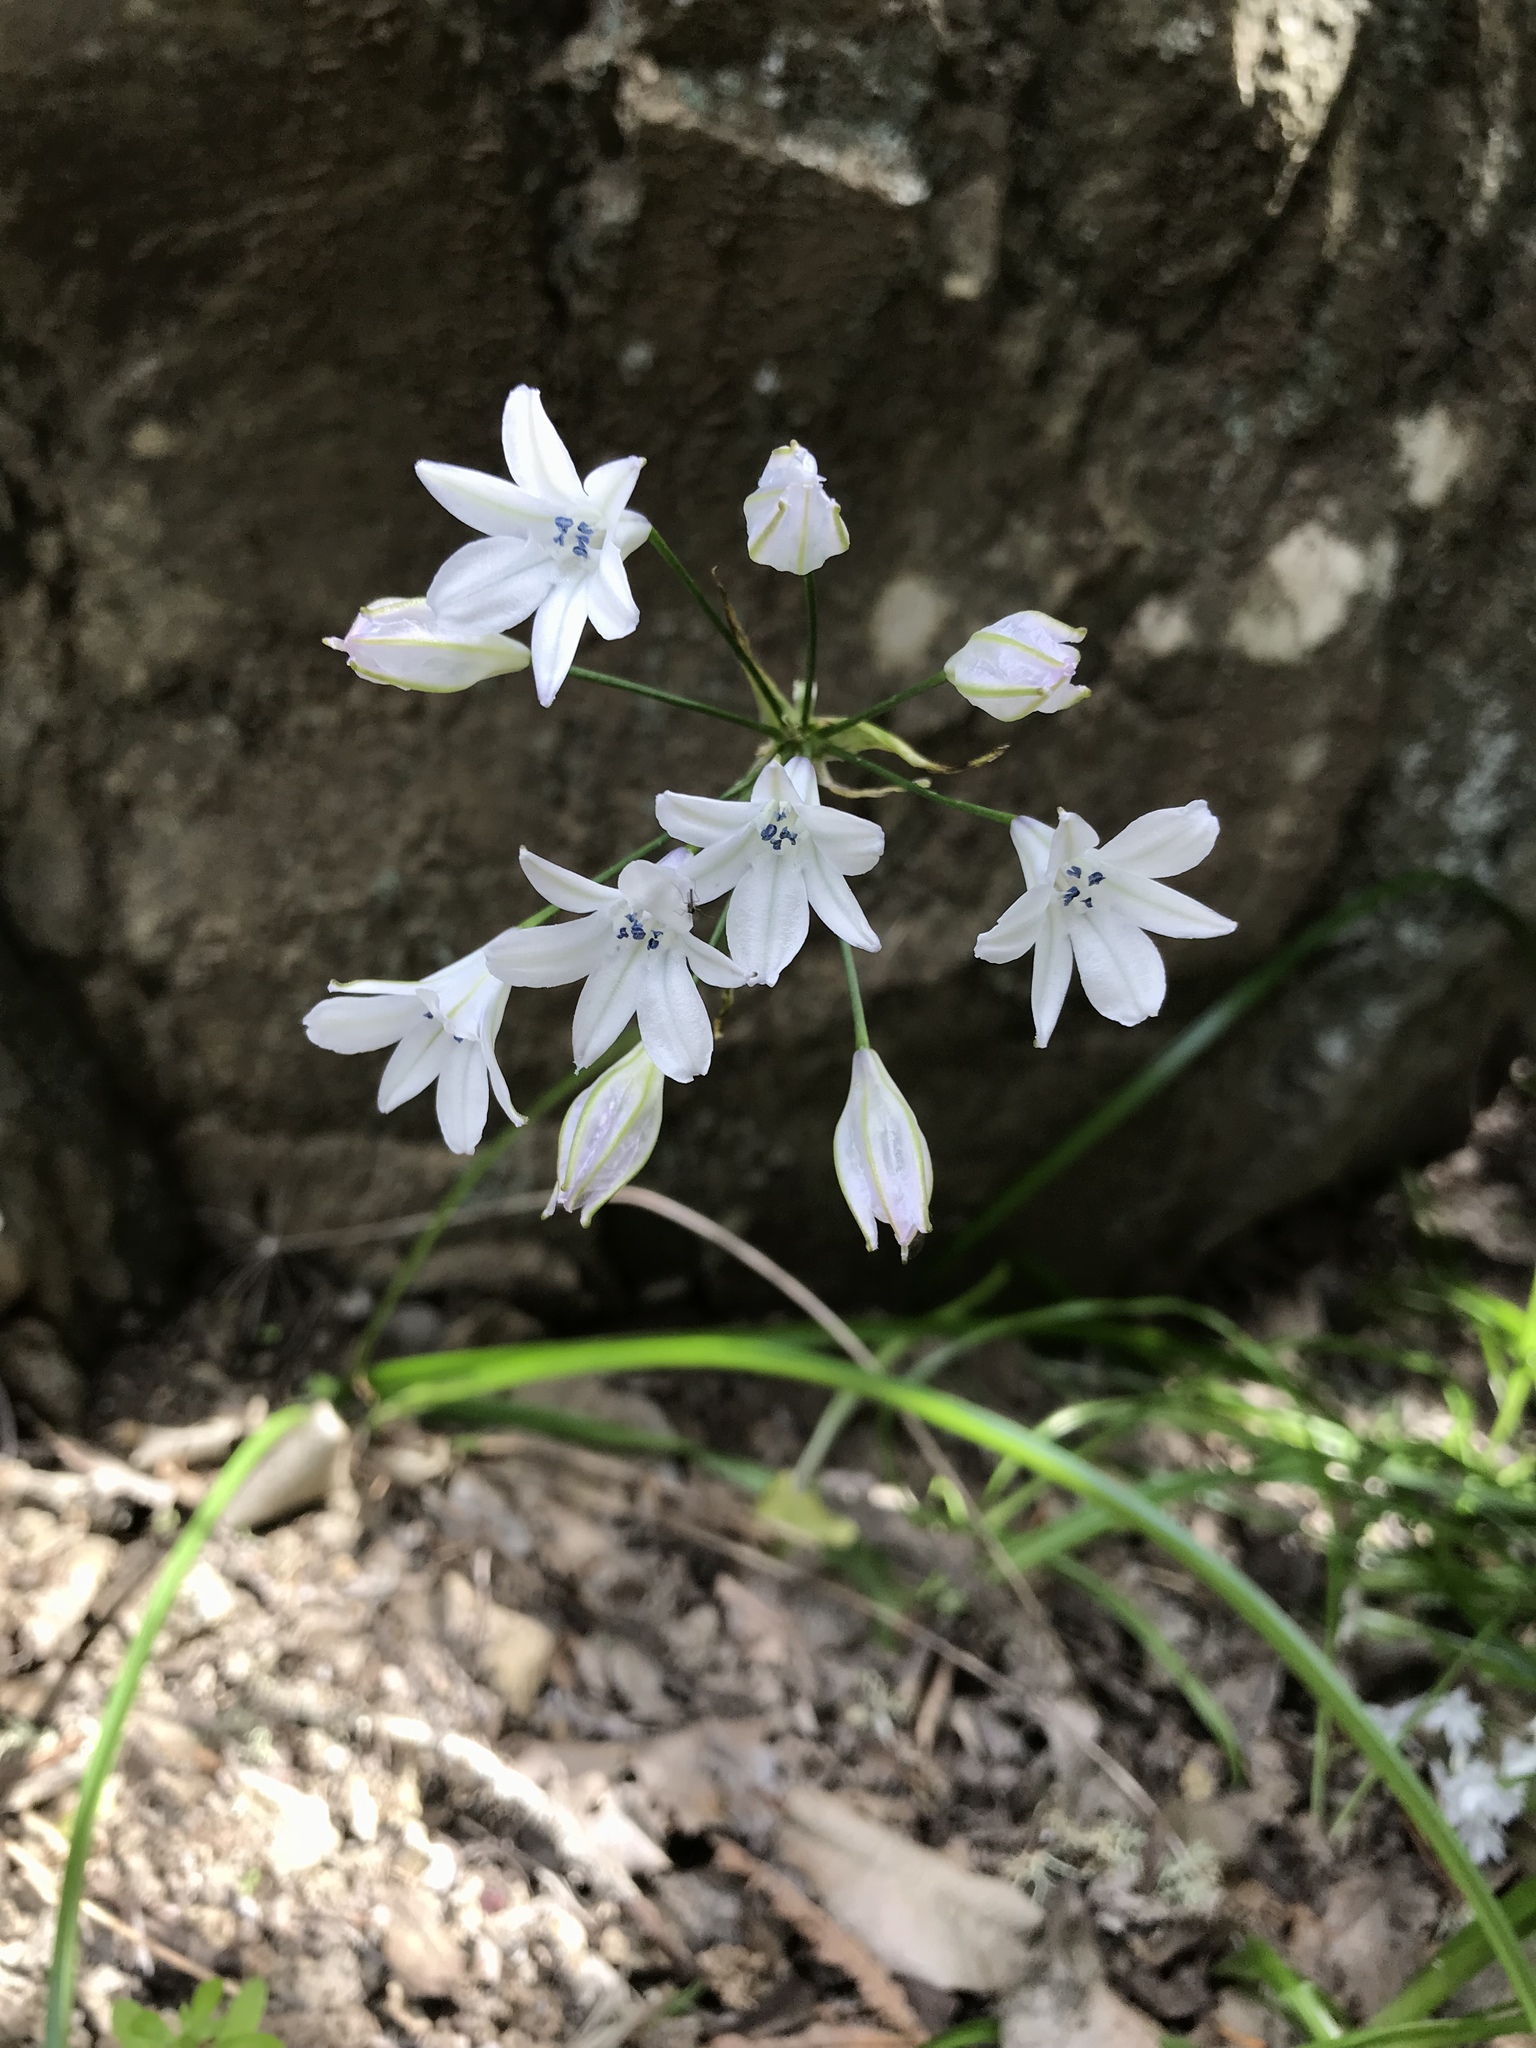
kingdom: Plantae
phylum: Tracheophyta
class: Liliopsida
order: Asparagales
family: Asparagaceae
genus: Triteleia
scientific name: Triteleia clementina
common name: San clemente island triteleia
